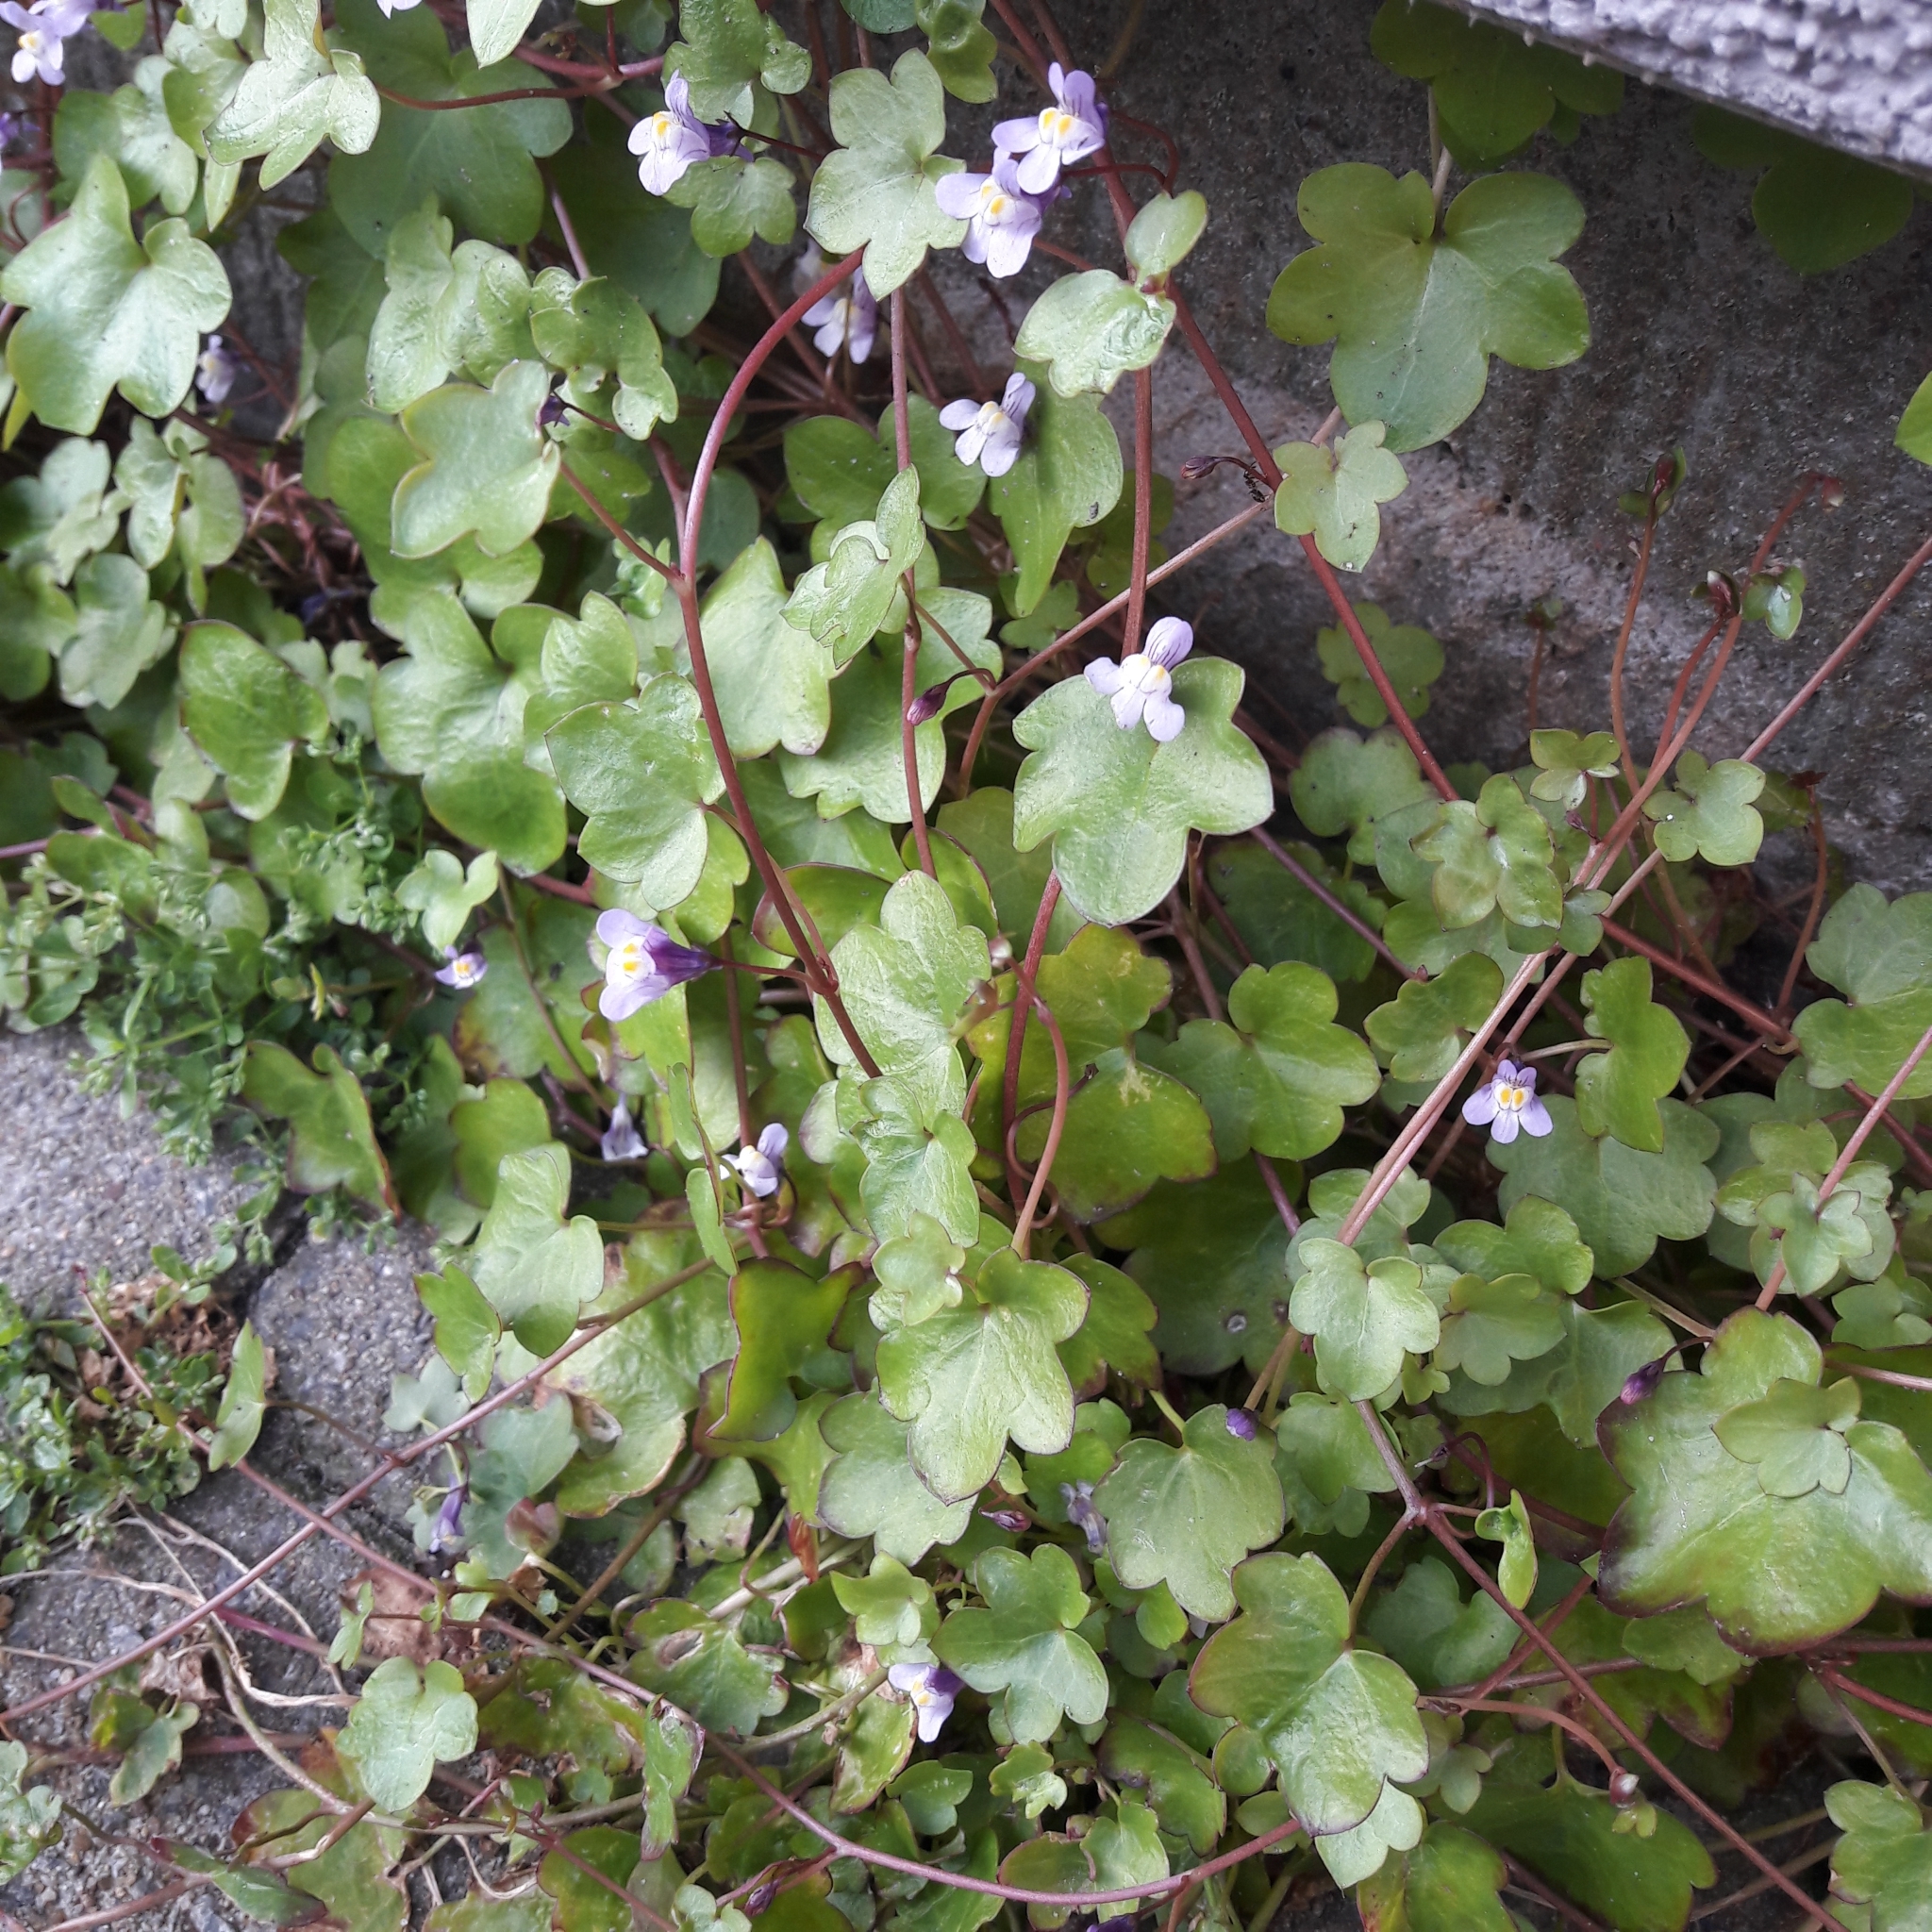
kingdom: Plantae
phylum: Tracheophyta
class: Magnoliopsida
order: Lamiales
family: Plantaginaceae
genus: Cymbalaria
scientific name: Cymbalaria muralis
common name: Ivy-leaved toadflax
